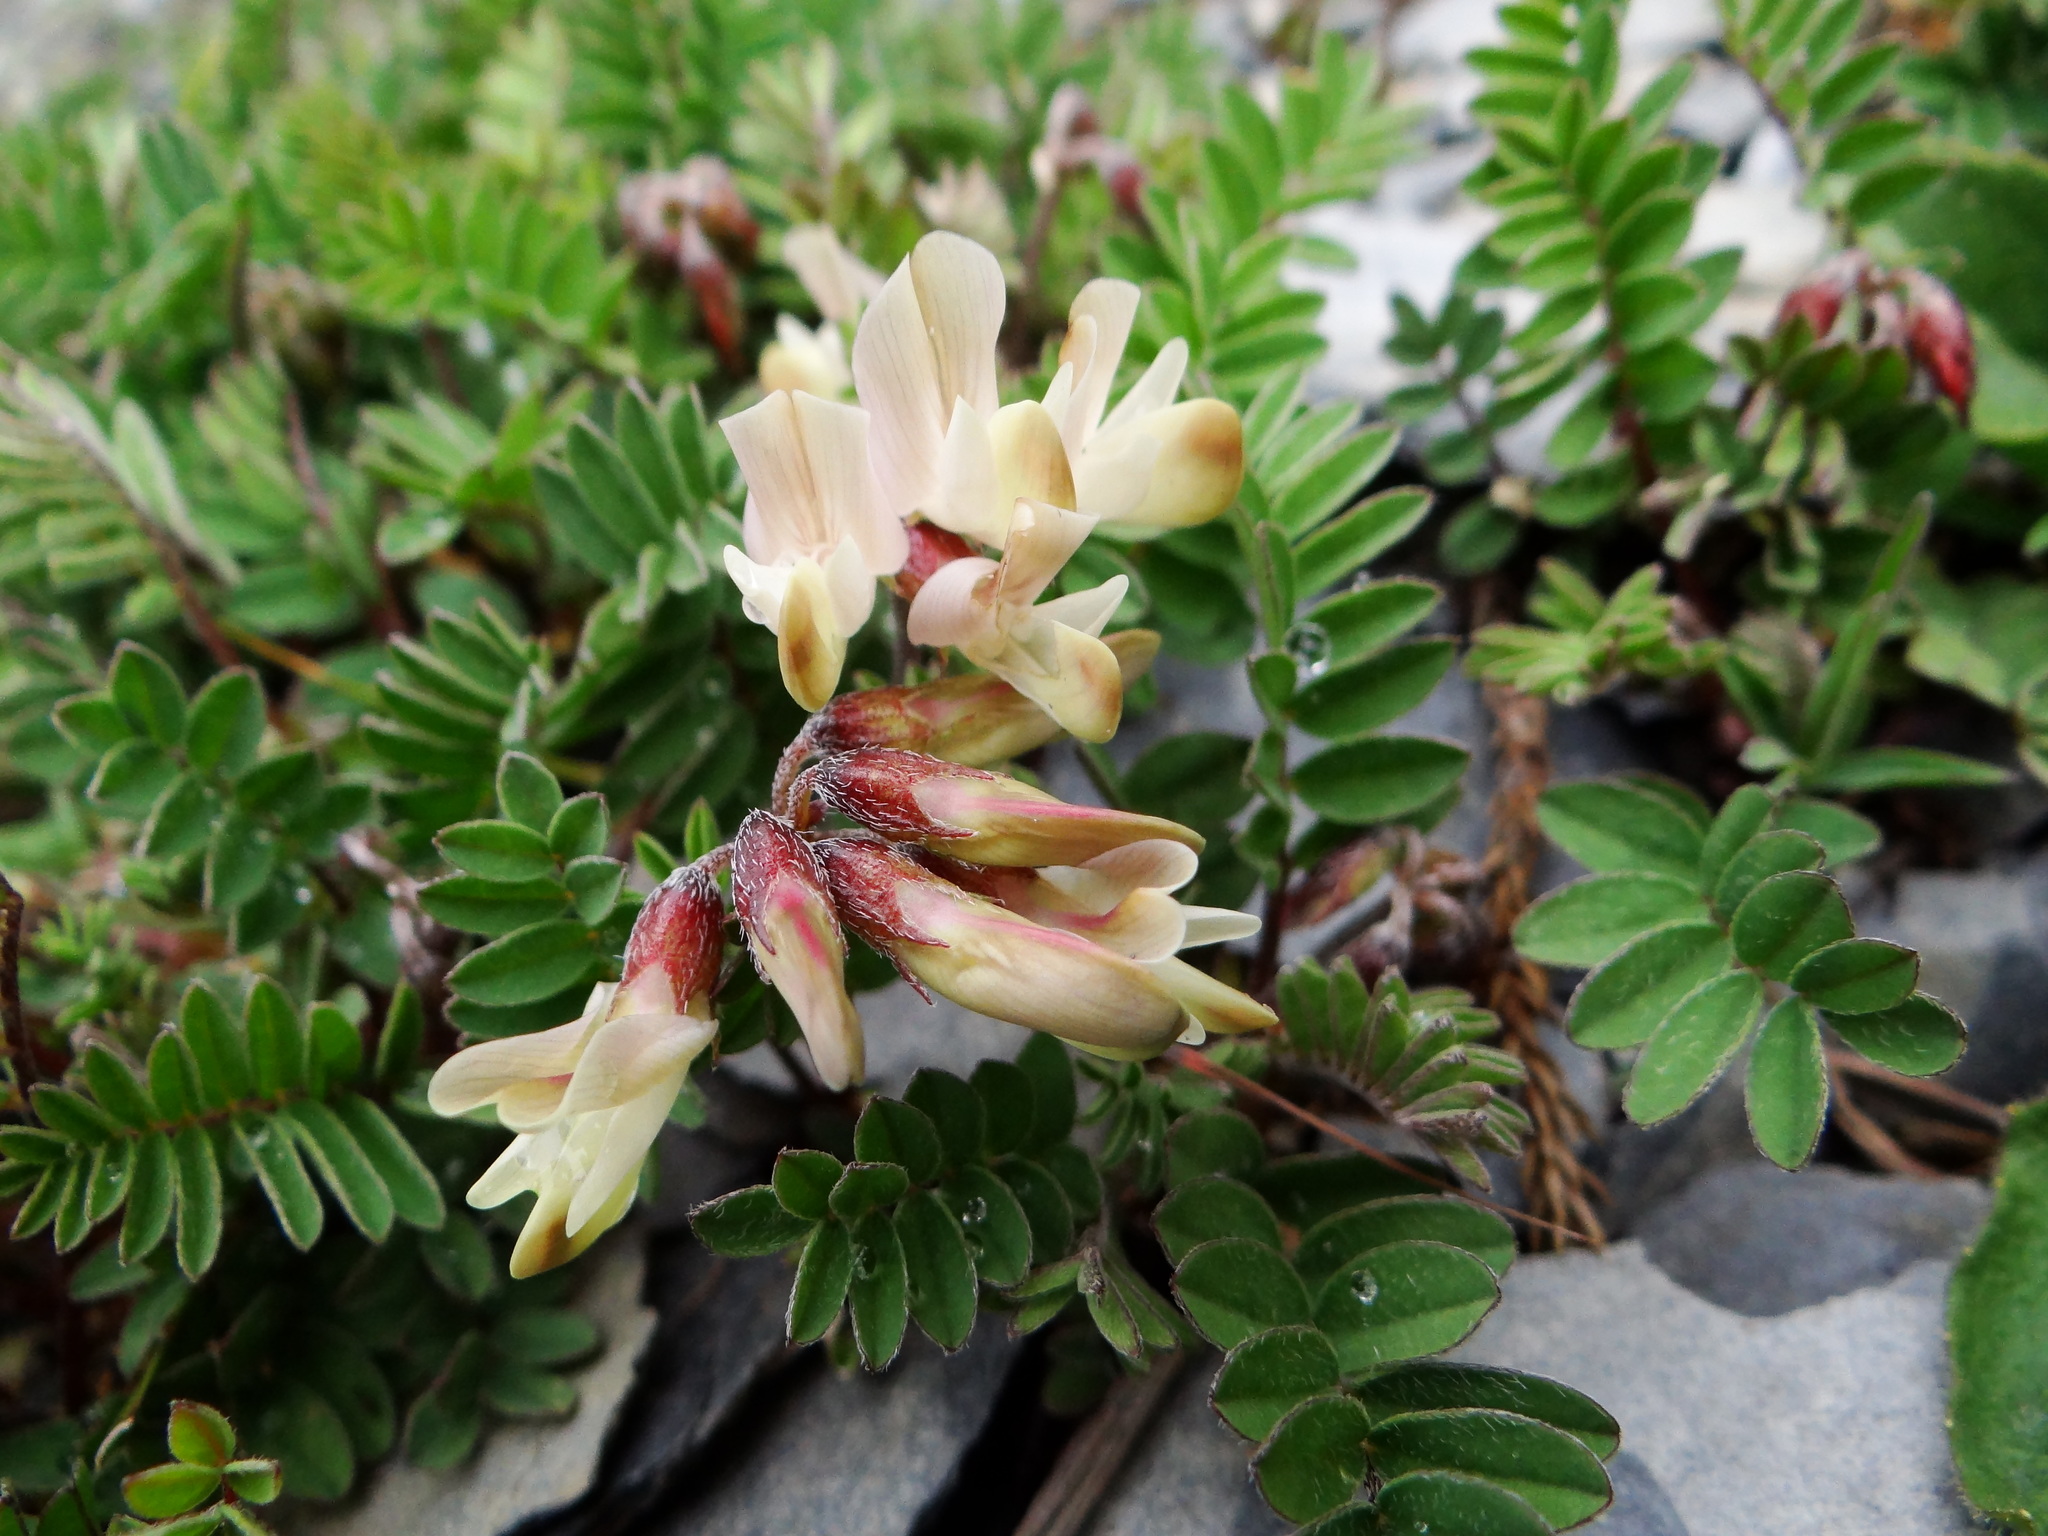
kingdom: Plantae
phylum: Tracheophyta
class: Magnoliopsida
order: Fabales
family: Fabaceae
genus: Astragalus
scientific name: Astragalus nankotaizanensis
